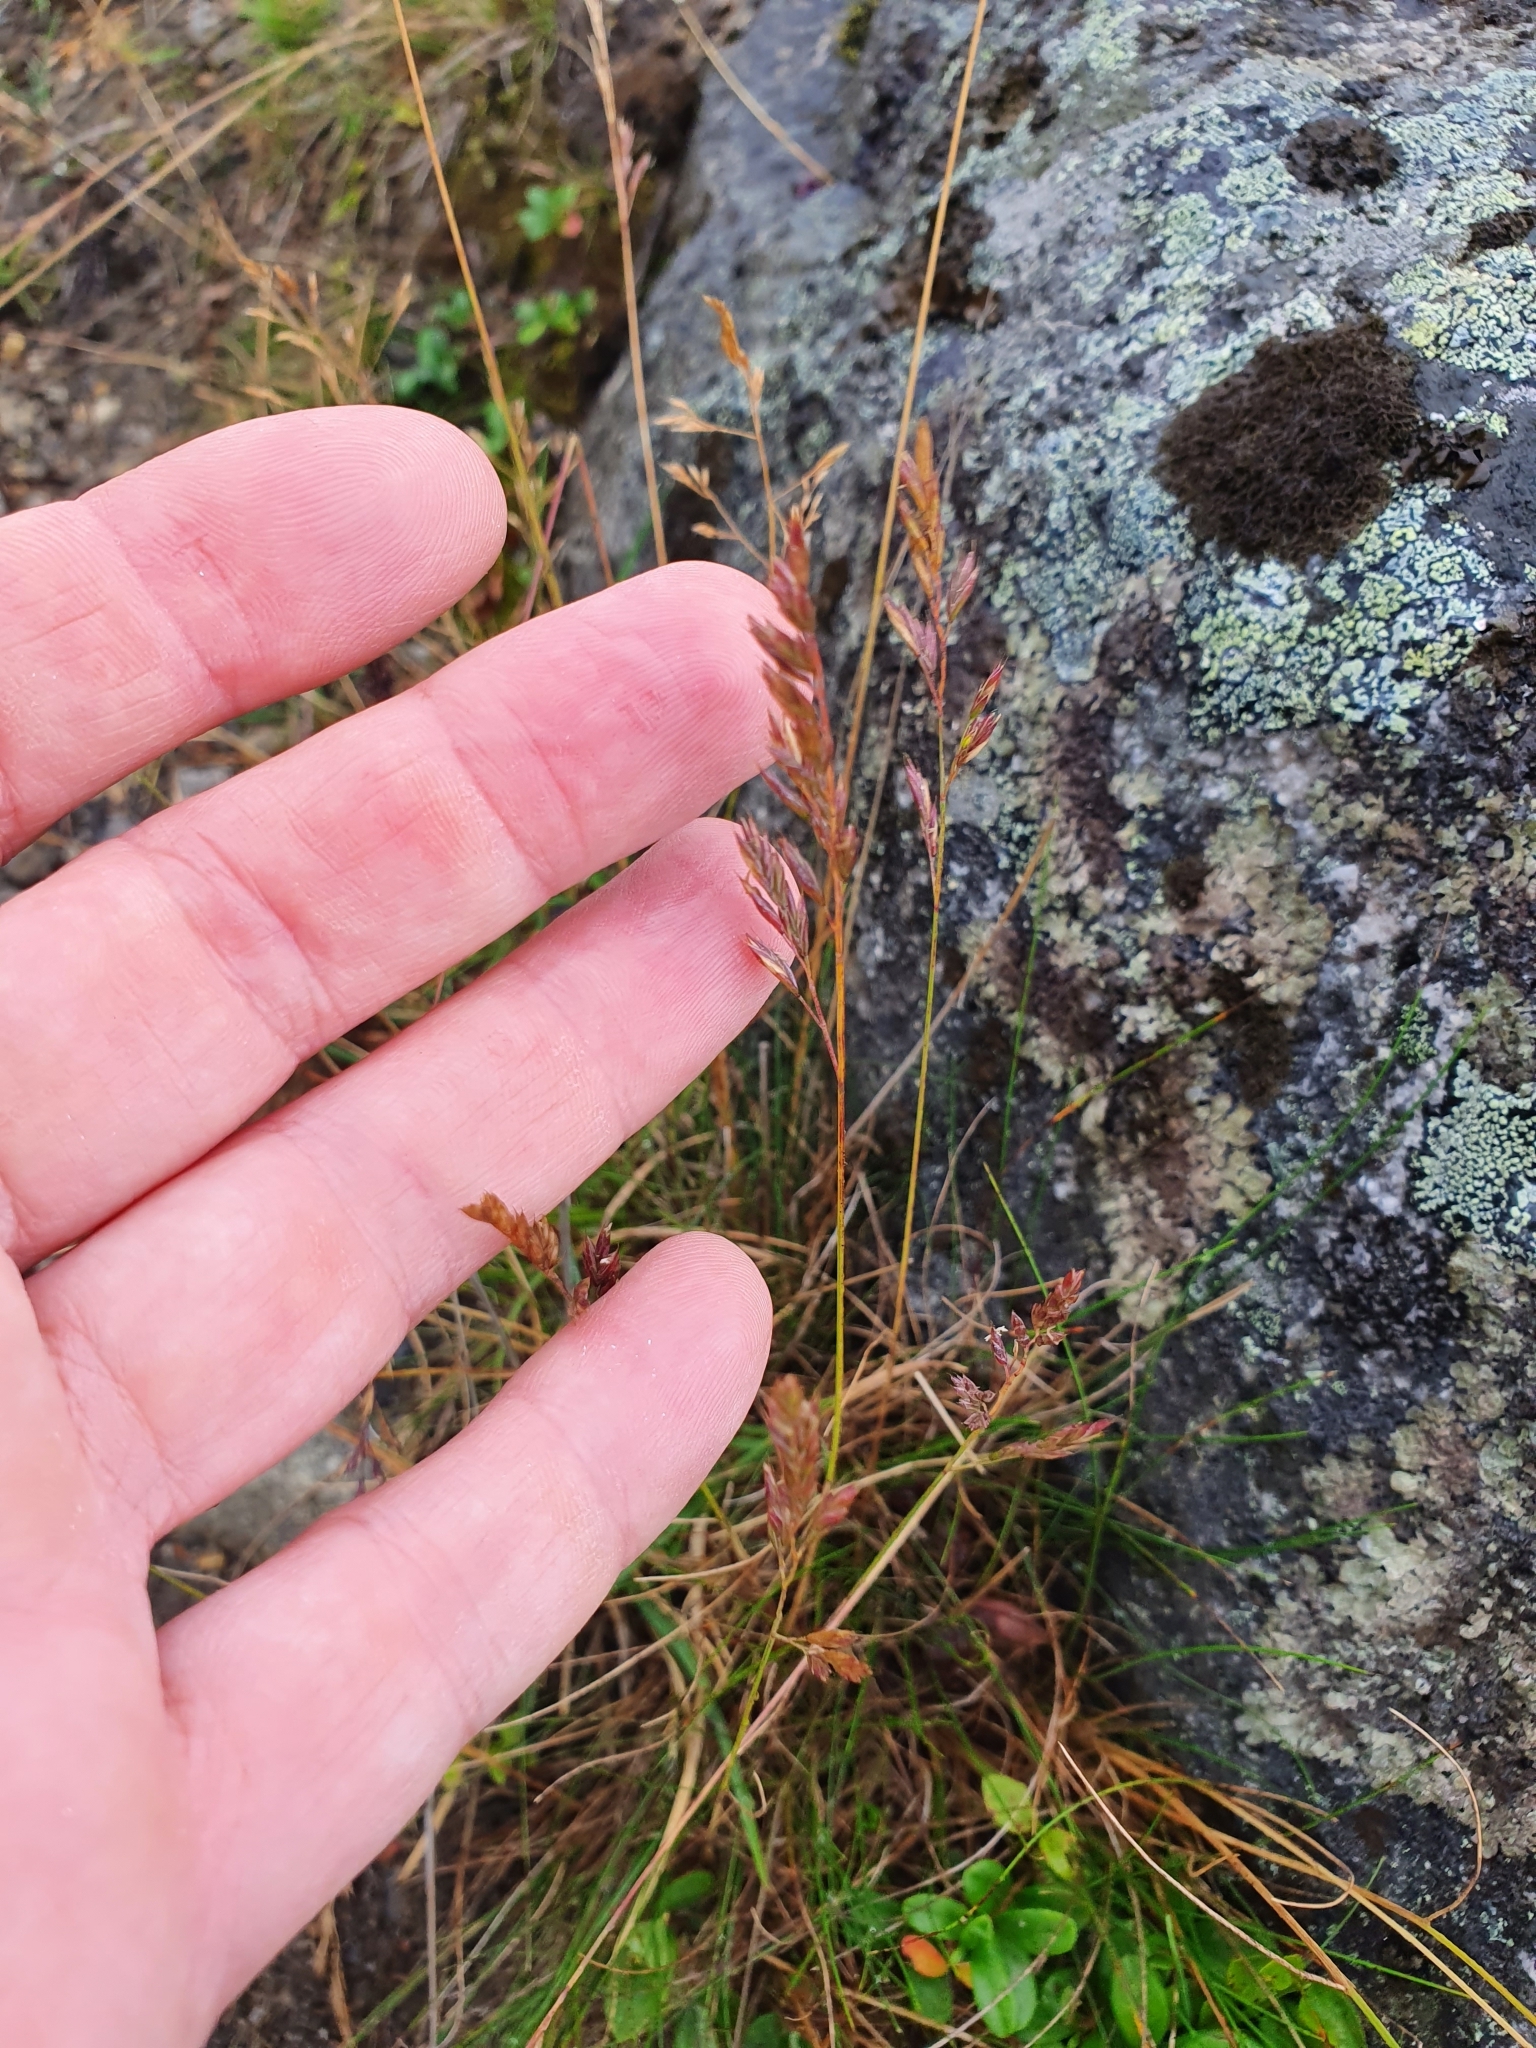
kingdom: Plantae
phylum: Tracheophyta
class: Liliopsida
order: Poales
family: Poaceae
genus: Festuca
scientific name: Festuca ovina
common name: Sheep fescue
